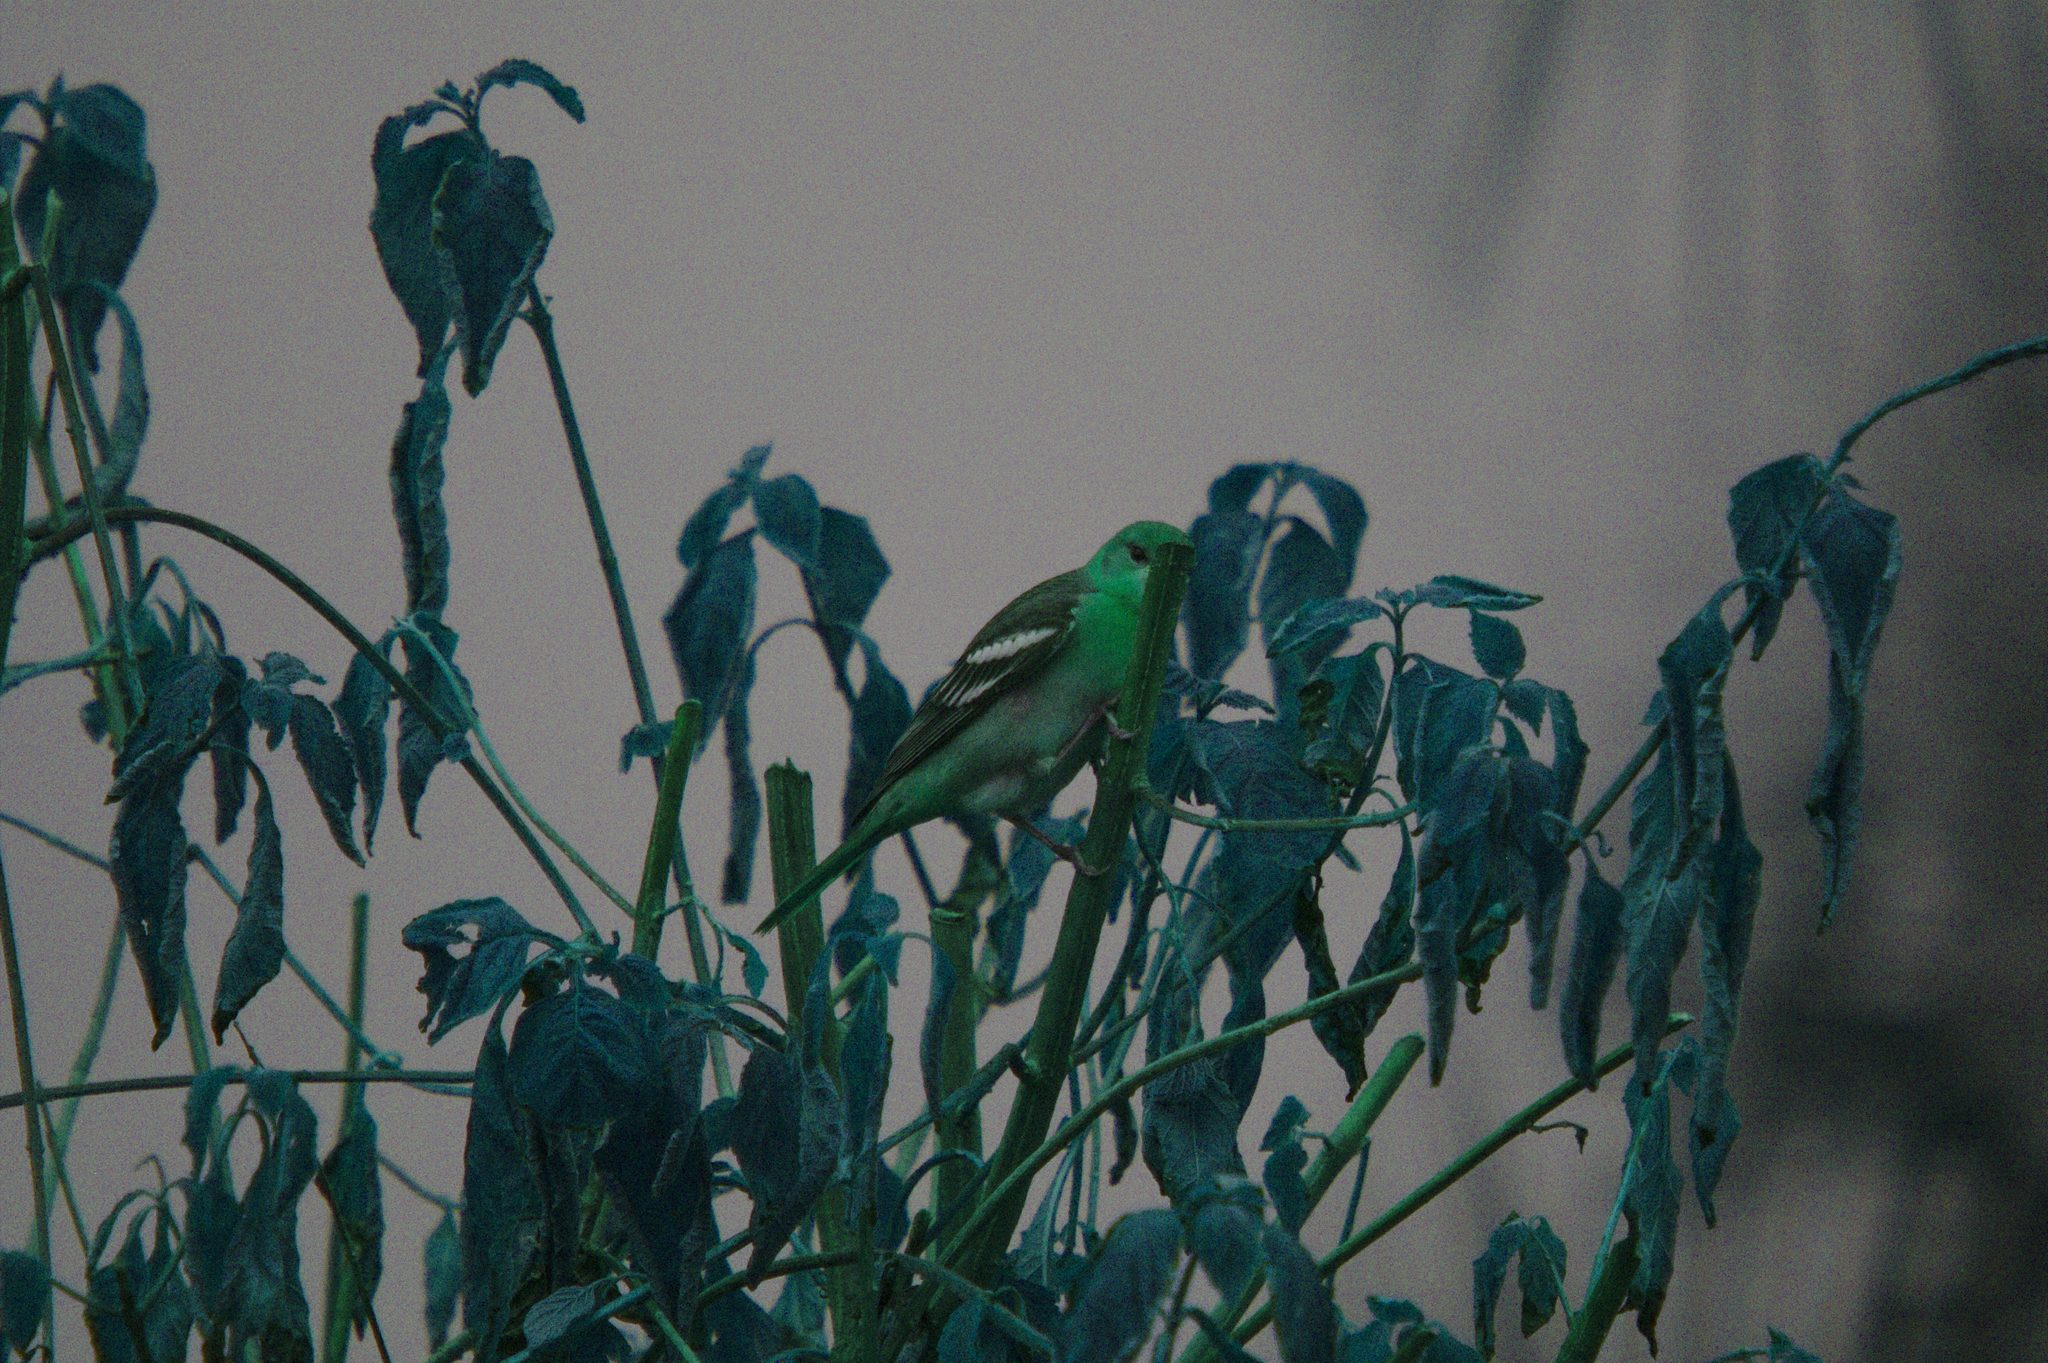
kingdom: Animalia
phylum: Chordata
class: Aves
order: Passeriformes
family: Icteridae
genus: Icterus
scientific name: Icterus galbula
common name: Baltimore oriole
